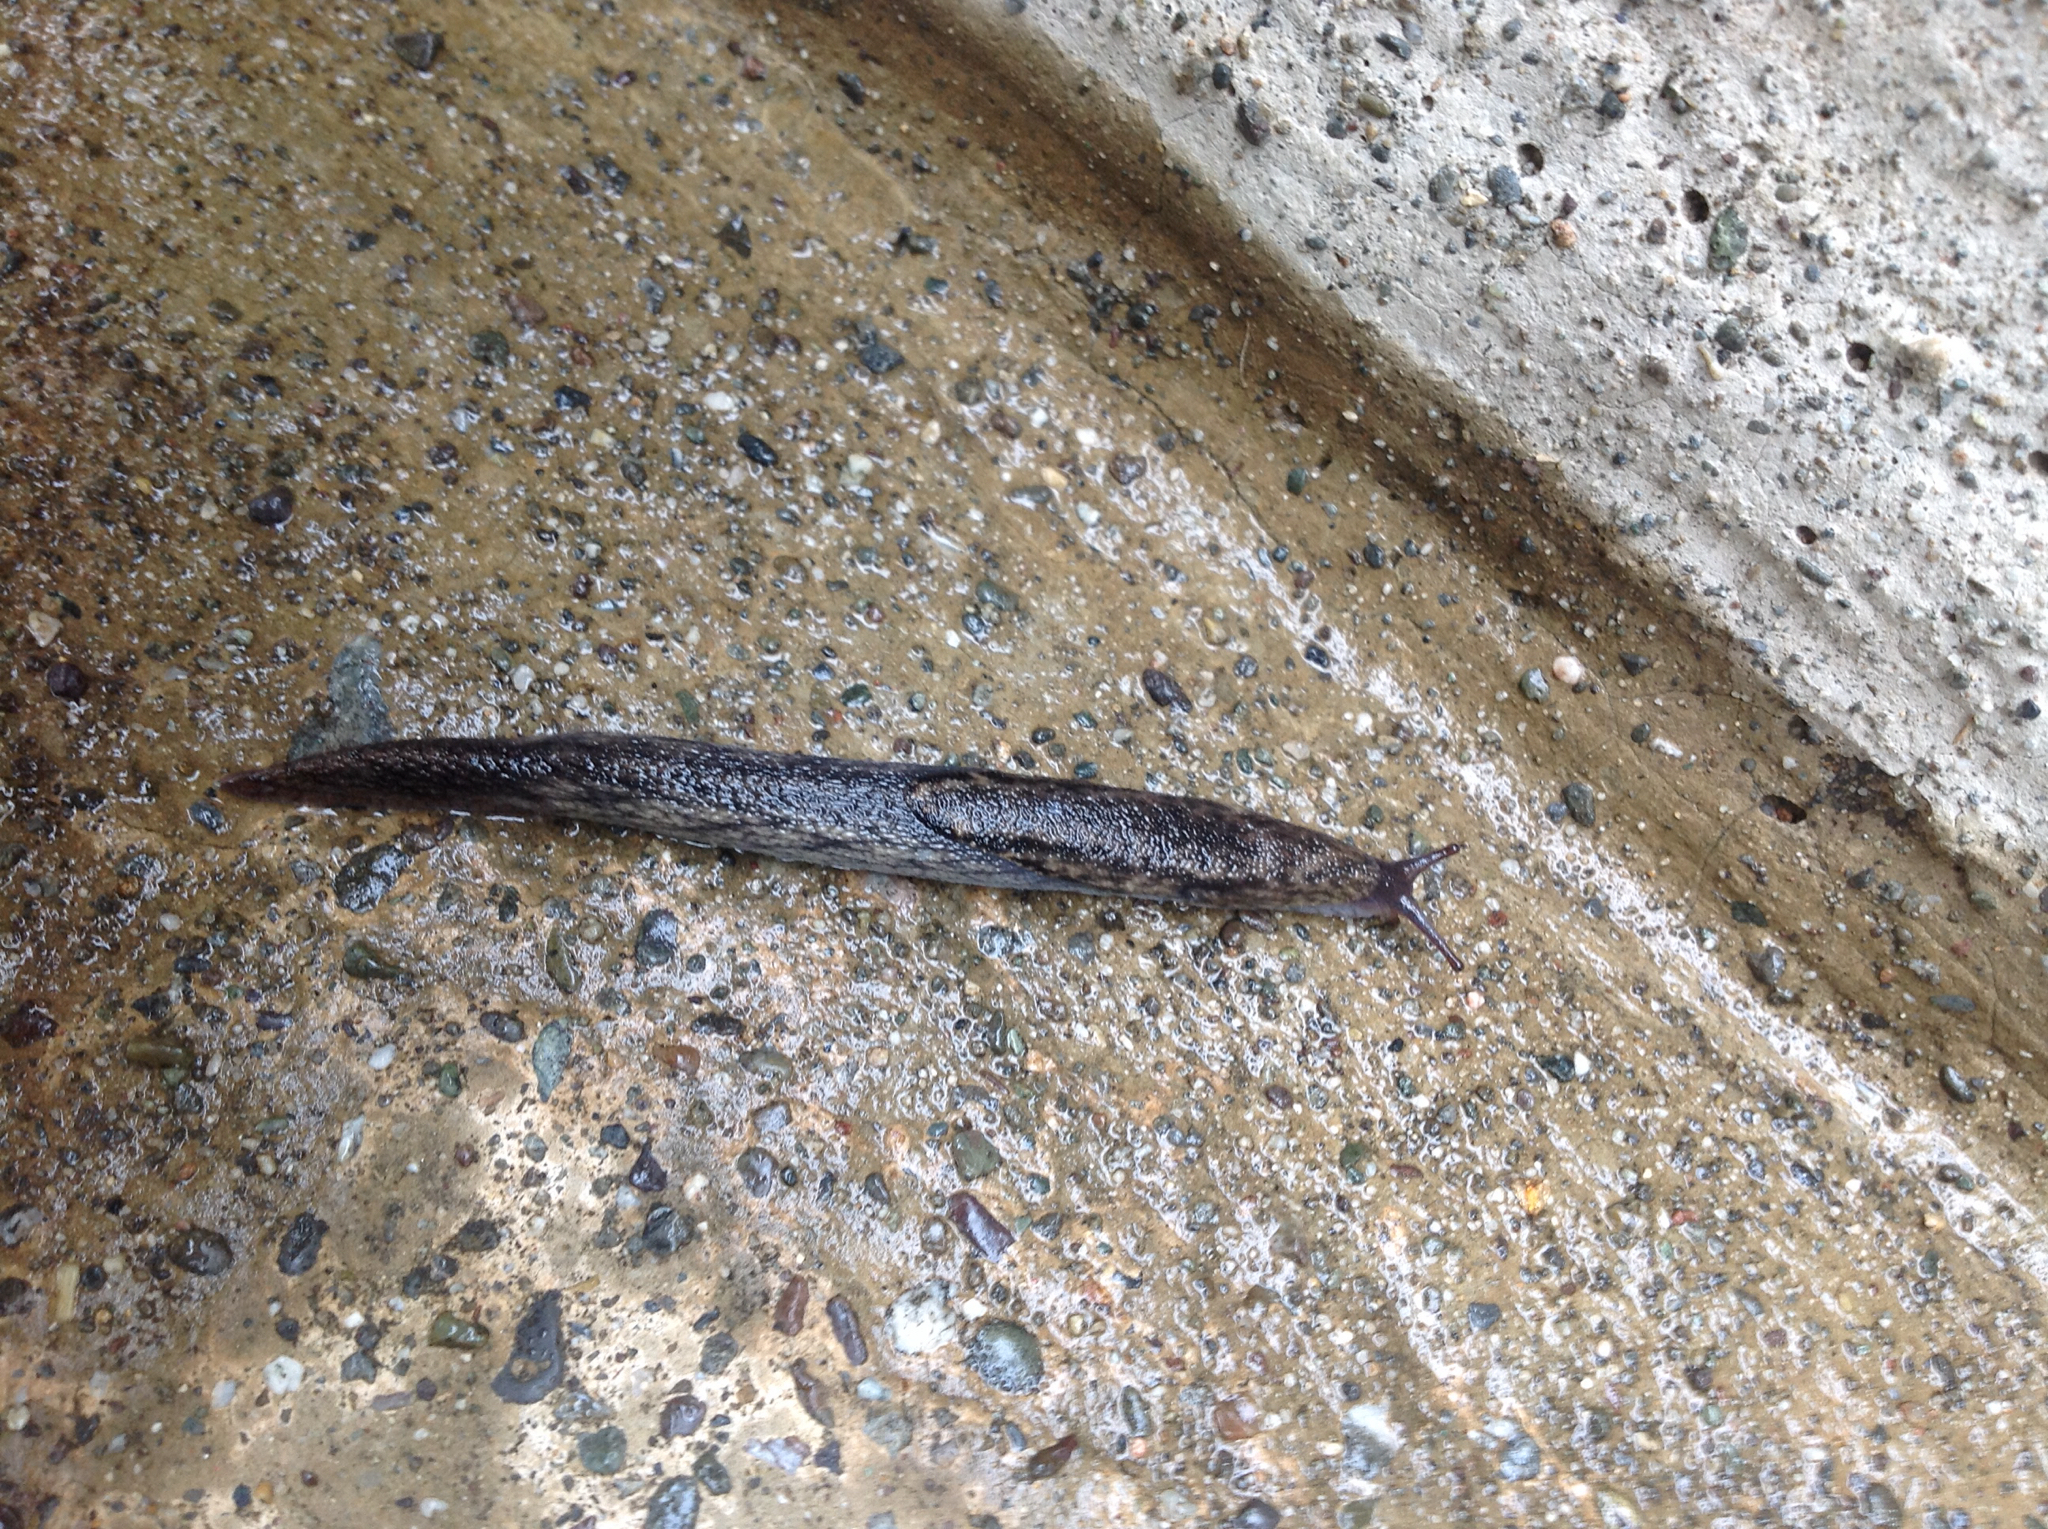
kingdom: Animalia
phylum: Mollusca
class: Gastropoda
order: Stylommatophora
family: Ariolimacidae
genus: Prophysaon
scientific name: Prophysaon andersonii
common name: Reticulate taildropper
